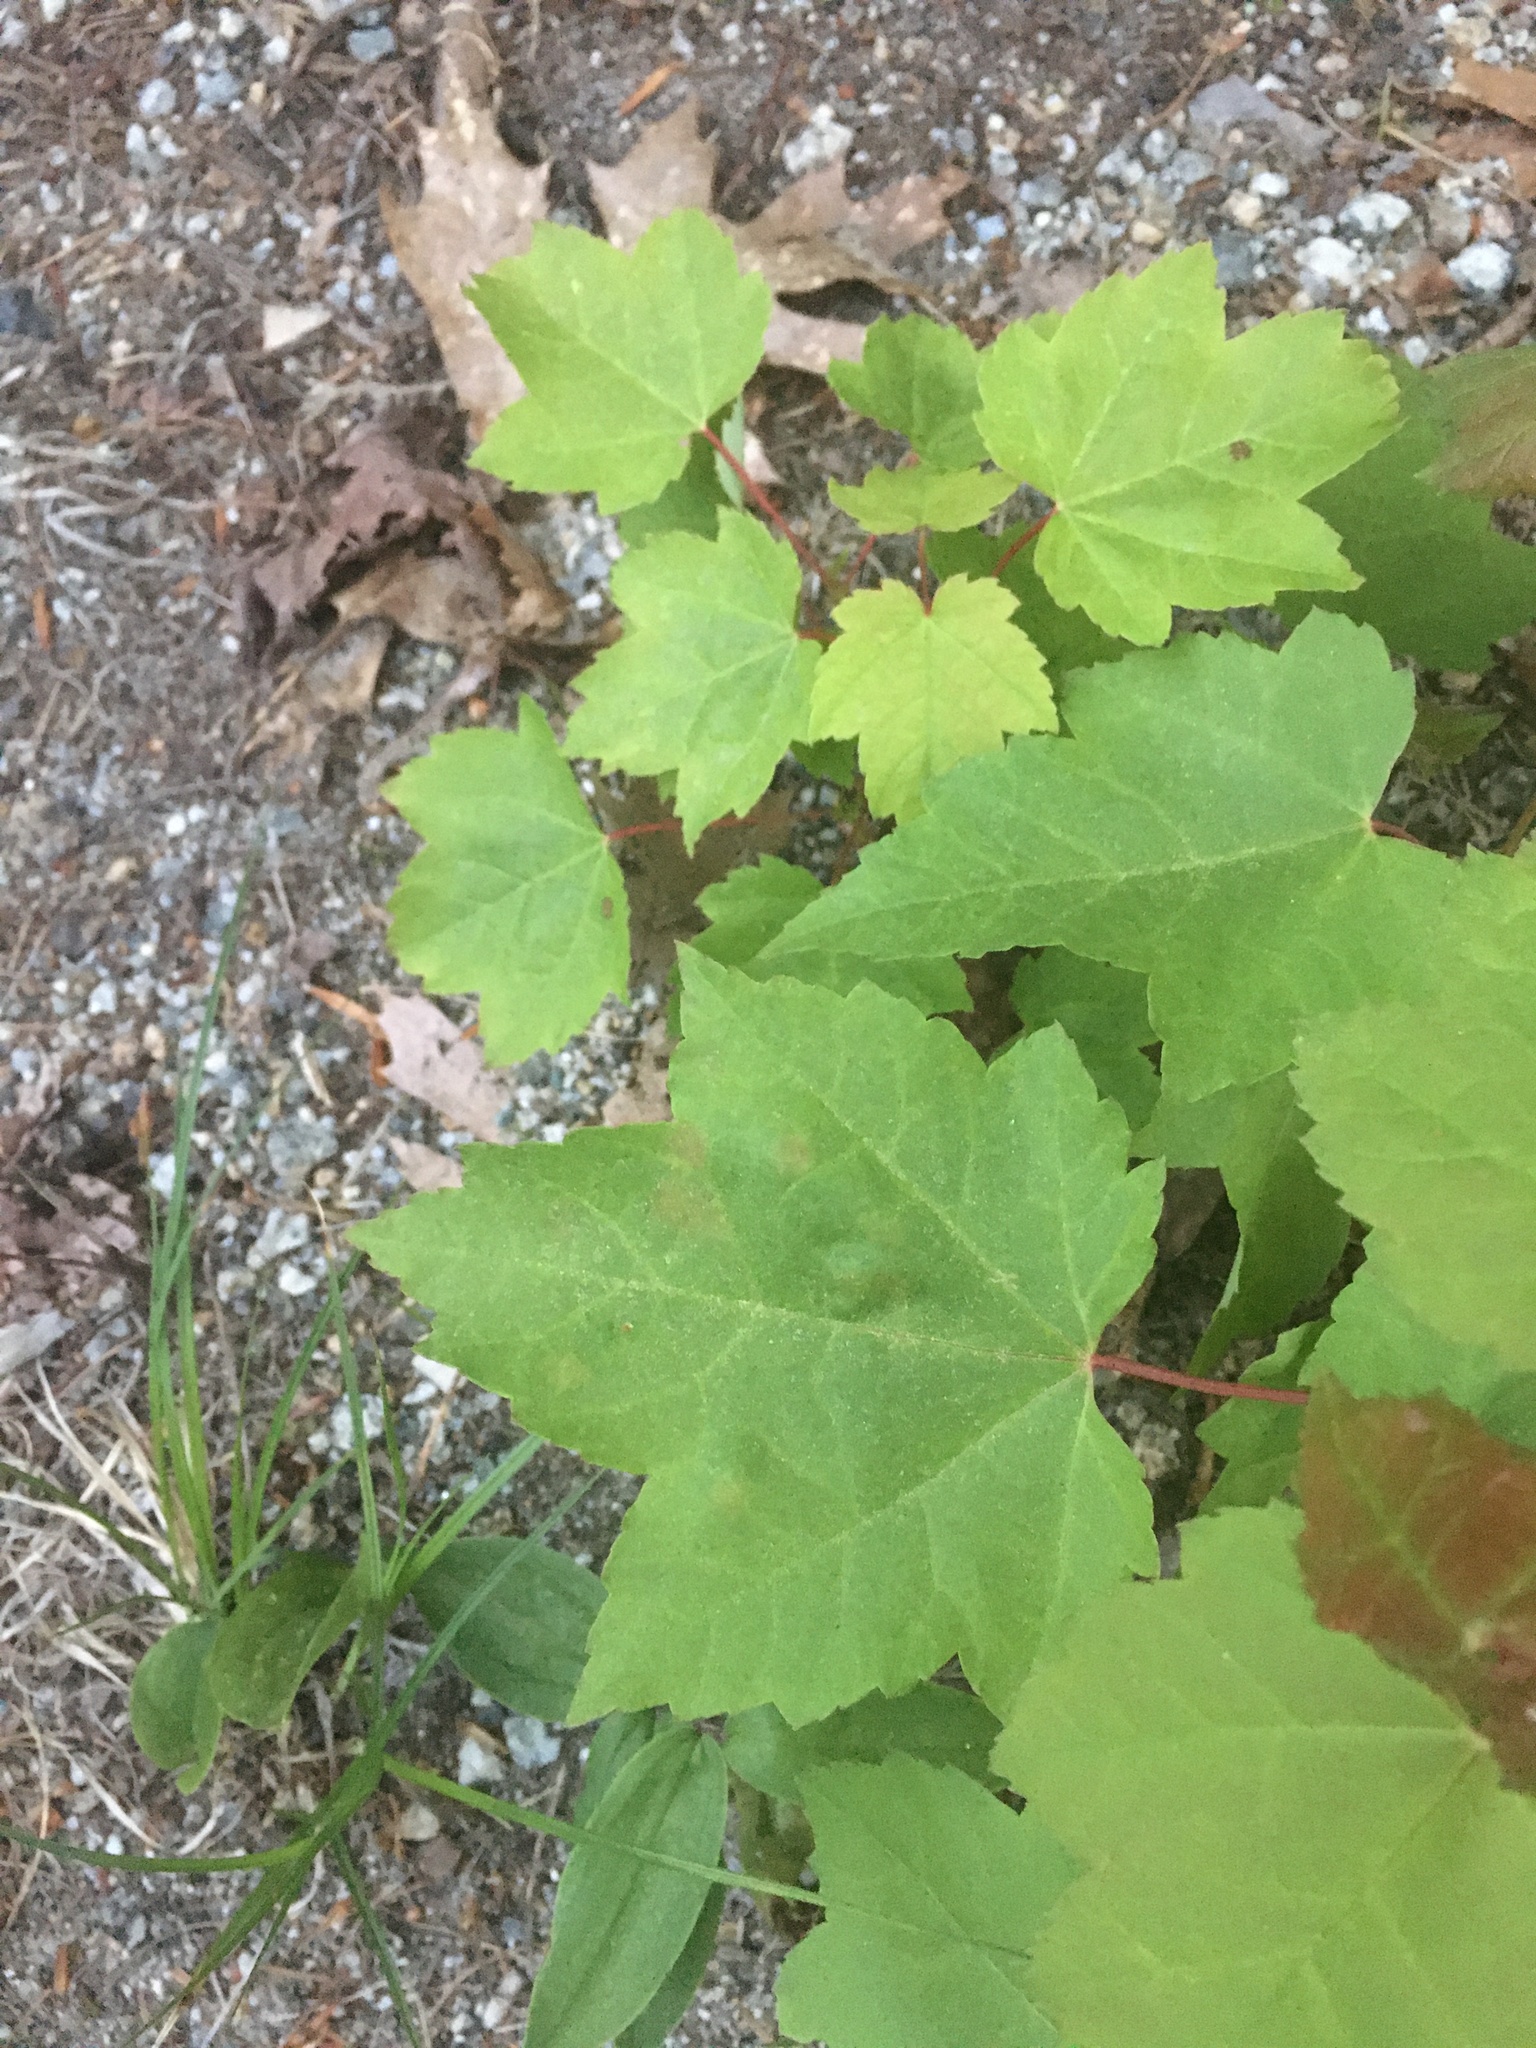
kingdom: Plantae
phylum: Tracheophyta
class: Magnoliopsida
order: Sapindales
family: Sapindaceae
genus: Acer
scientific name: Acer rubrum
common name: Red maple
